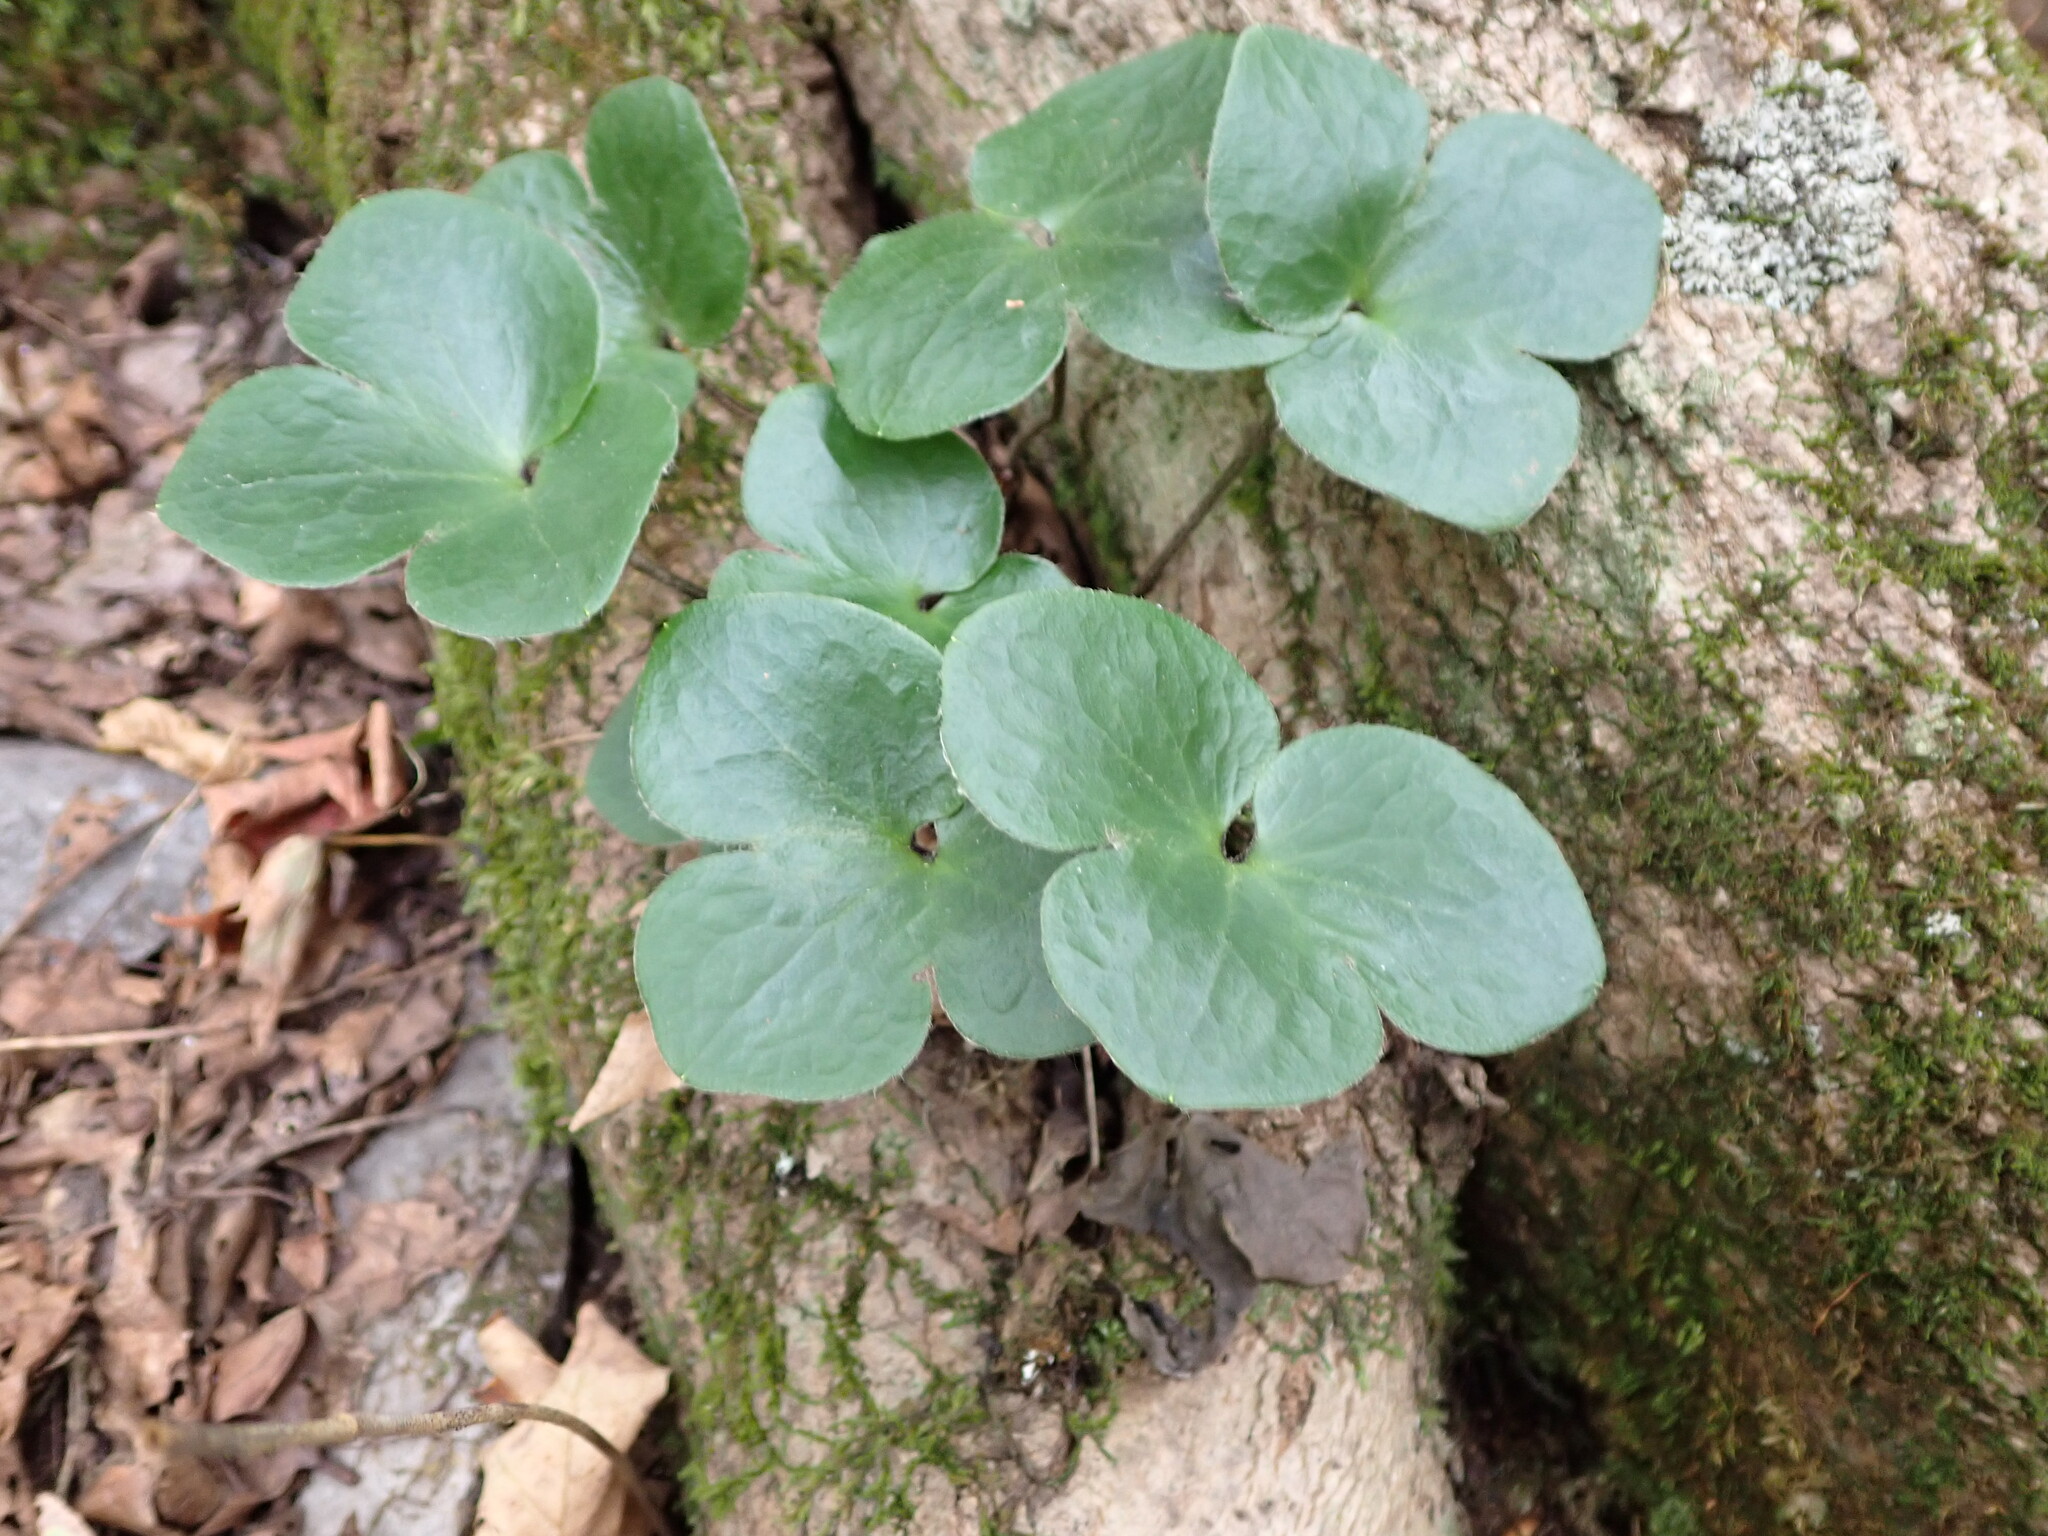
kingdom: Plantae
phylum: Tracheophyta
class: Magnoliopsida
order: Ranunculales
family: Ranunculaceae
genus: Hepatica
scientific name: Hepatica americana
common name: American hepatica
